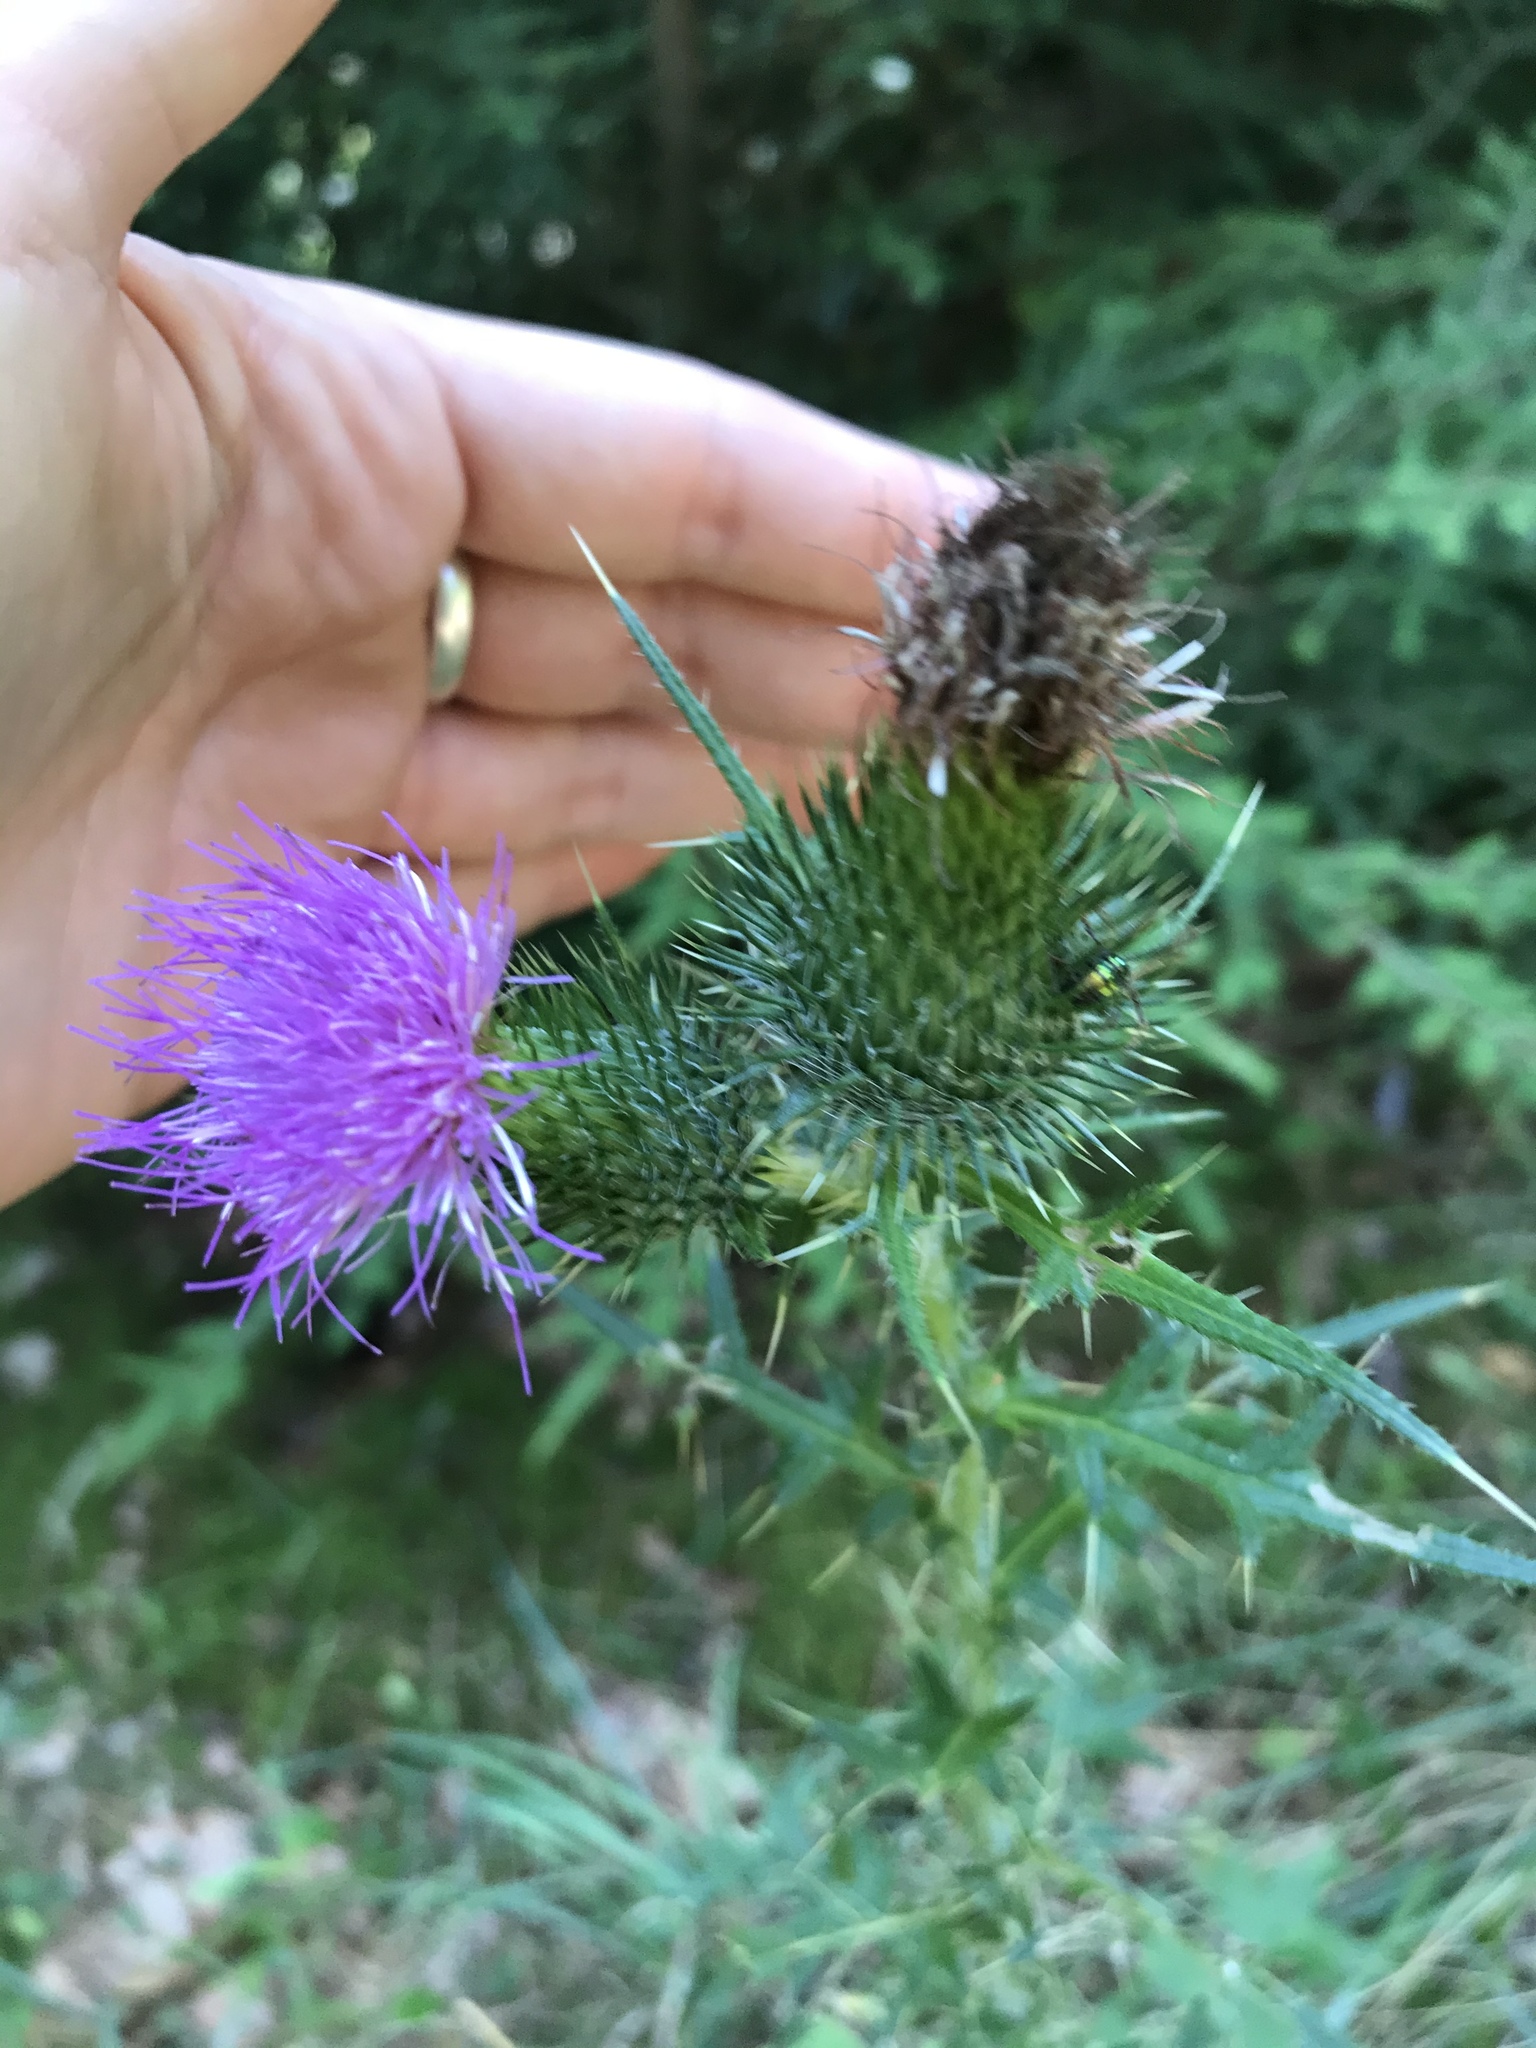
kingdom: Plantae
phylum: Tracheophyta
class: Magnoliopsida
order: Asterales
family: Asteraceae
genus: Cirsium
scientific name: Cirsium vulgare
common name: Bull thistle
